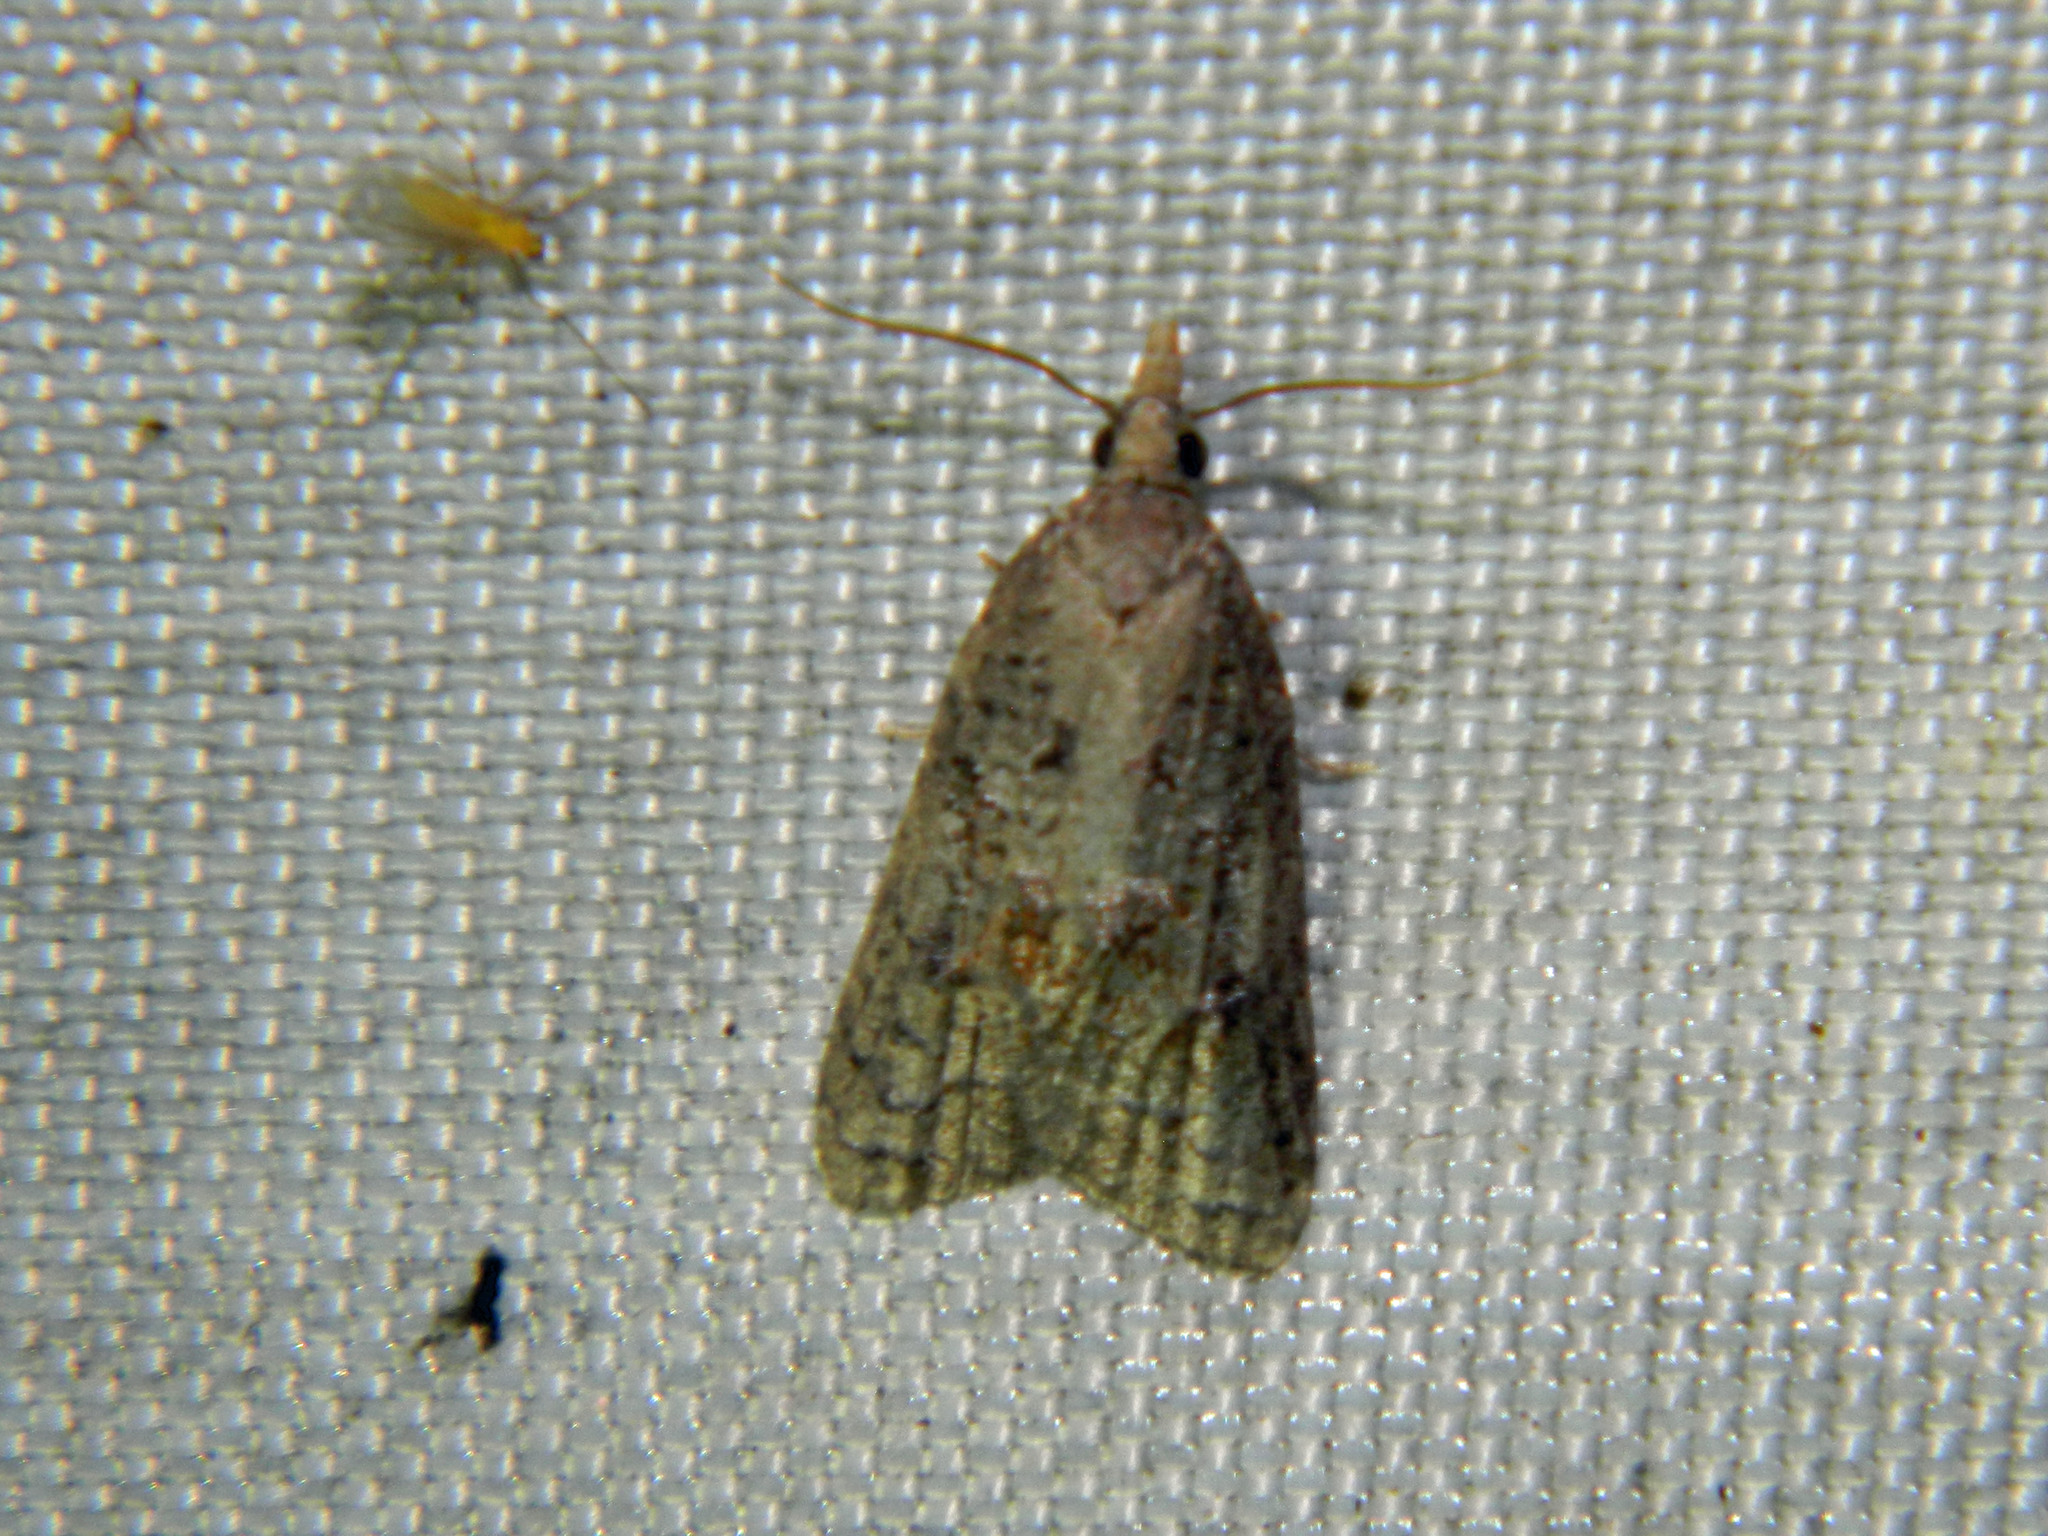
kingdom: Animalia
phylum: Arthropoda
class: Insecta
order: Lepidoptera
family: Tortricidae
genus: Platynota
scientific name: Platynota idaeusalis
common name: Tufted apple bud moth
